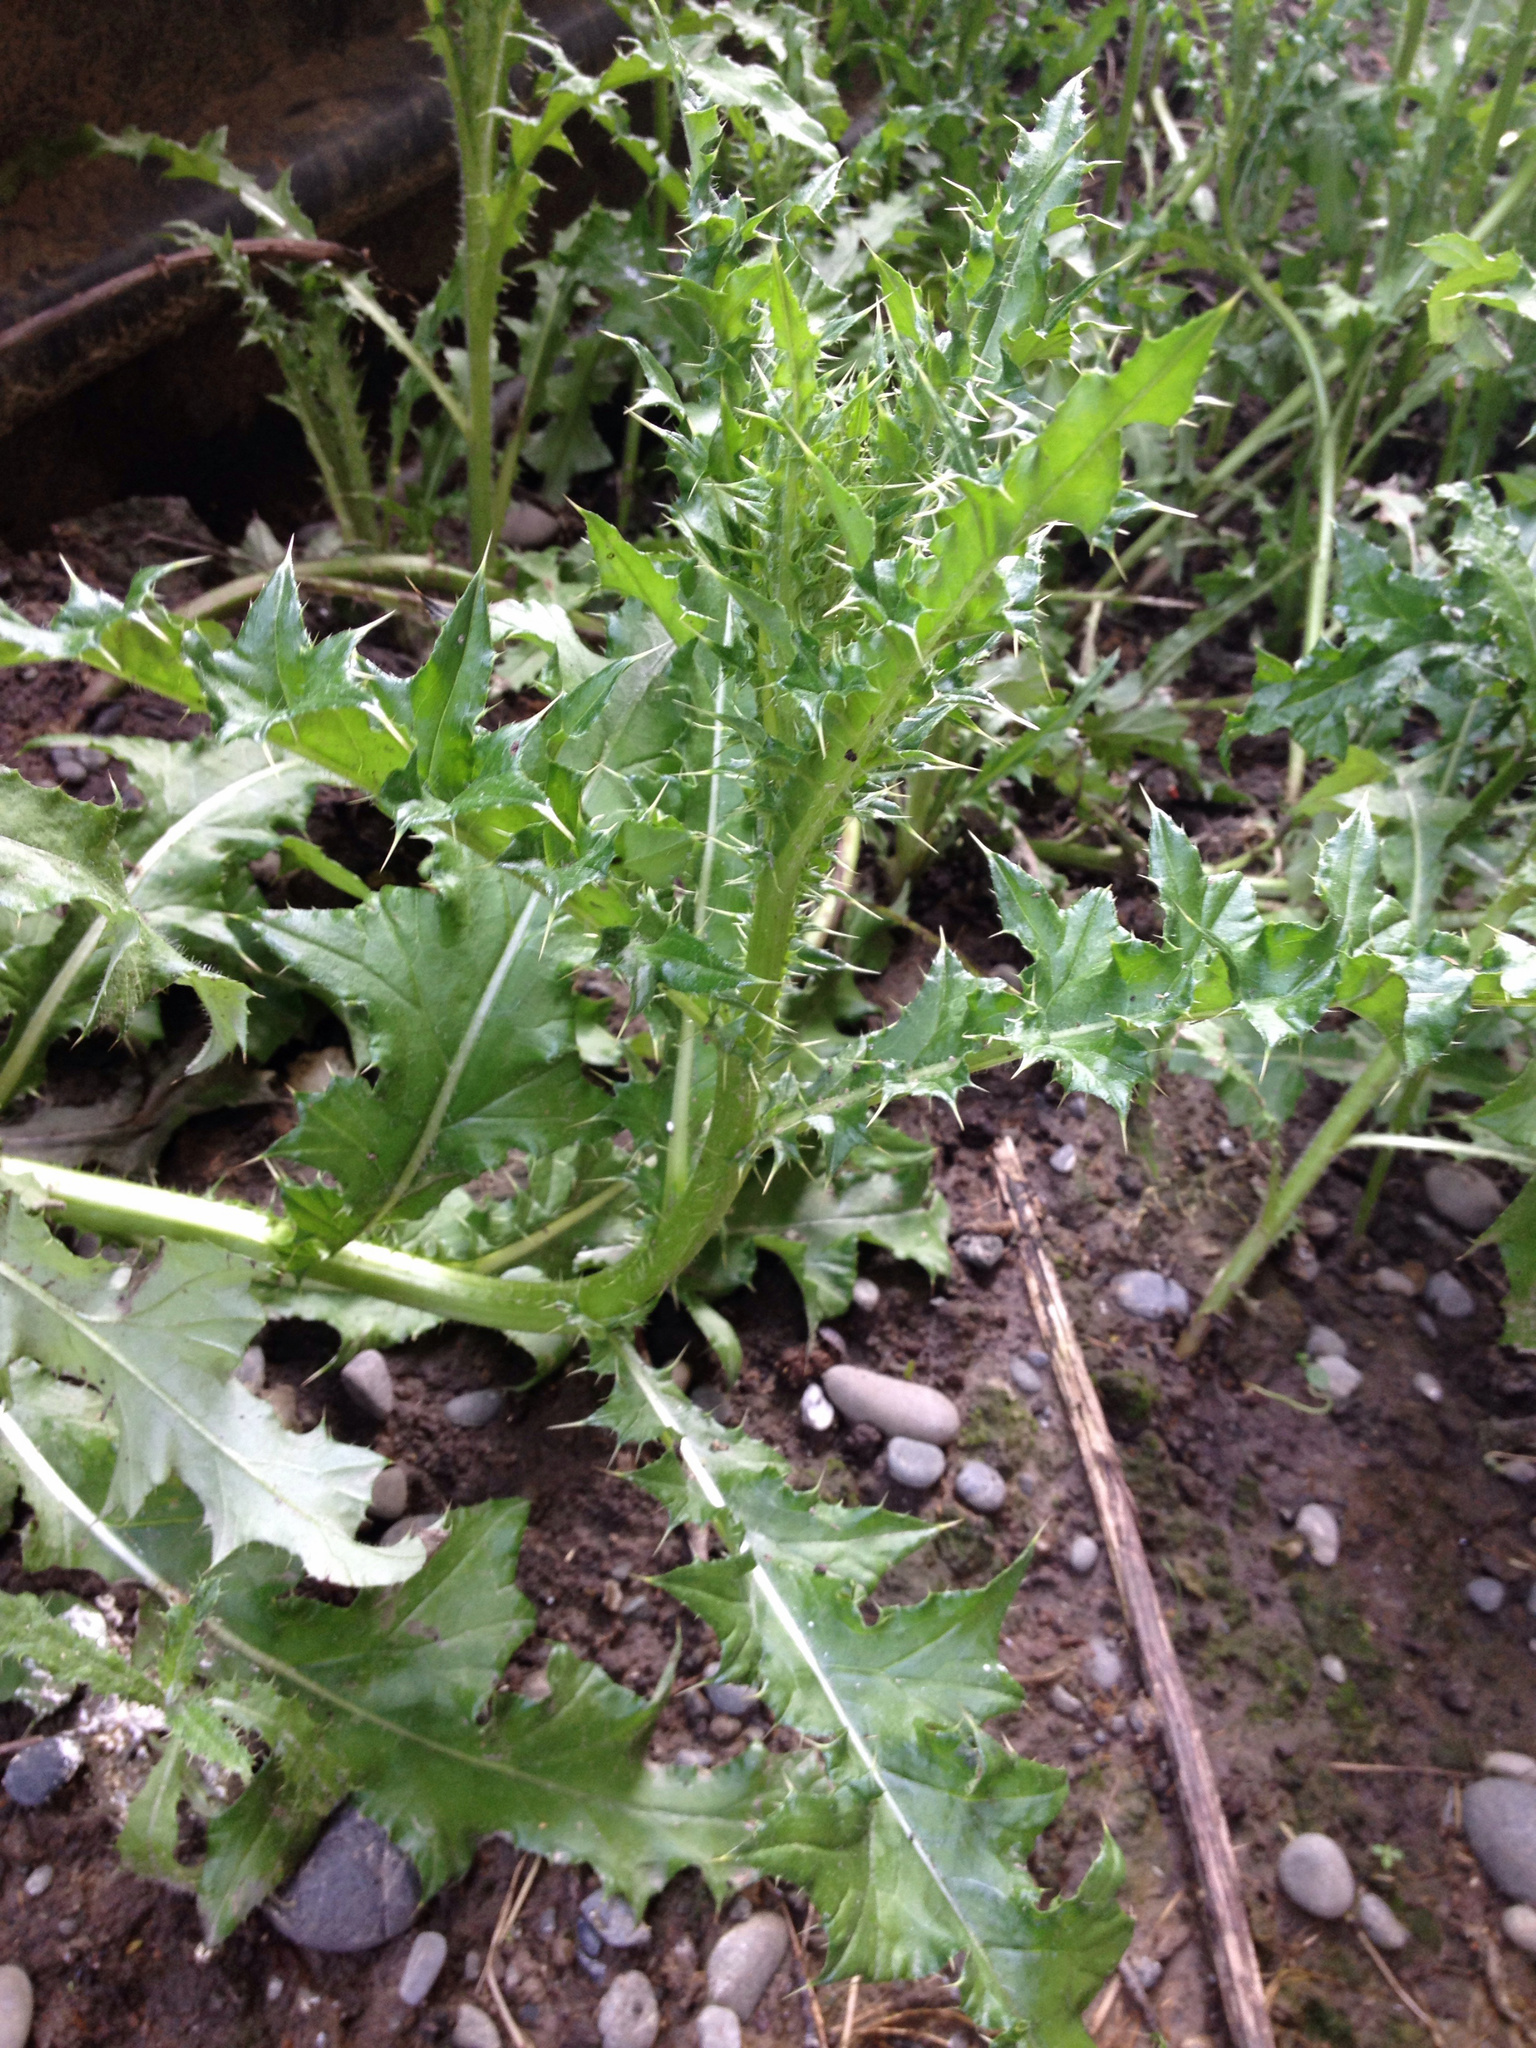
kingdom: Plantae
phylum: Tracheophyta
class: Magnoliopsida
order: Asterales
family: Asteraceae
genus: Cirsium
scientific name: Cirsium arvense
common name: Creeping thistle
